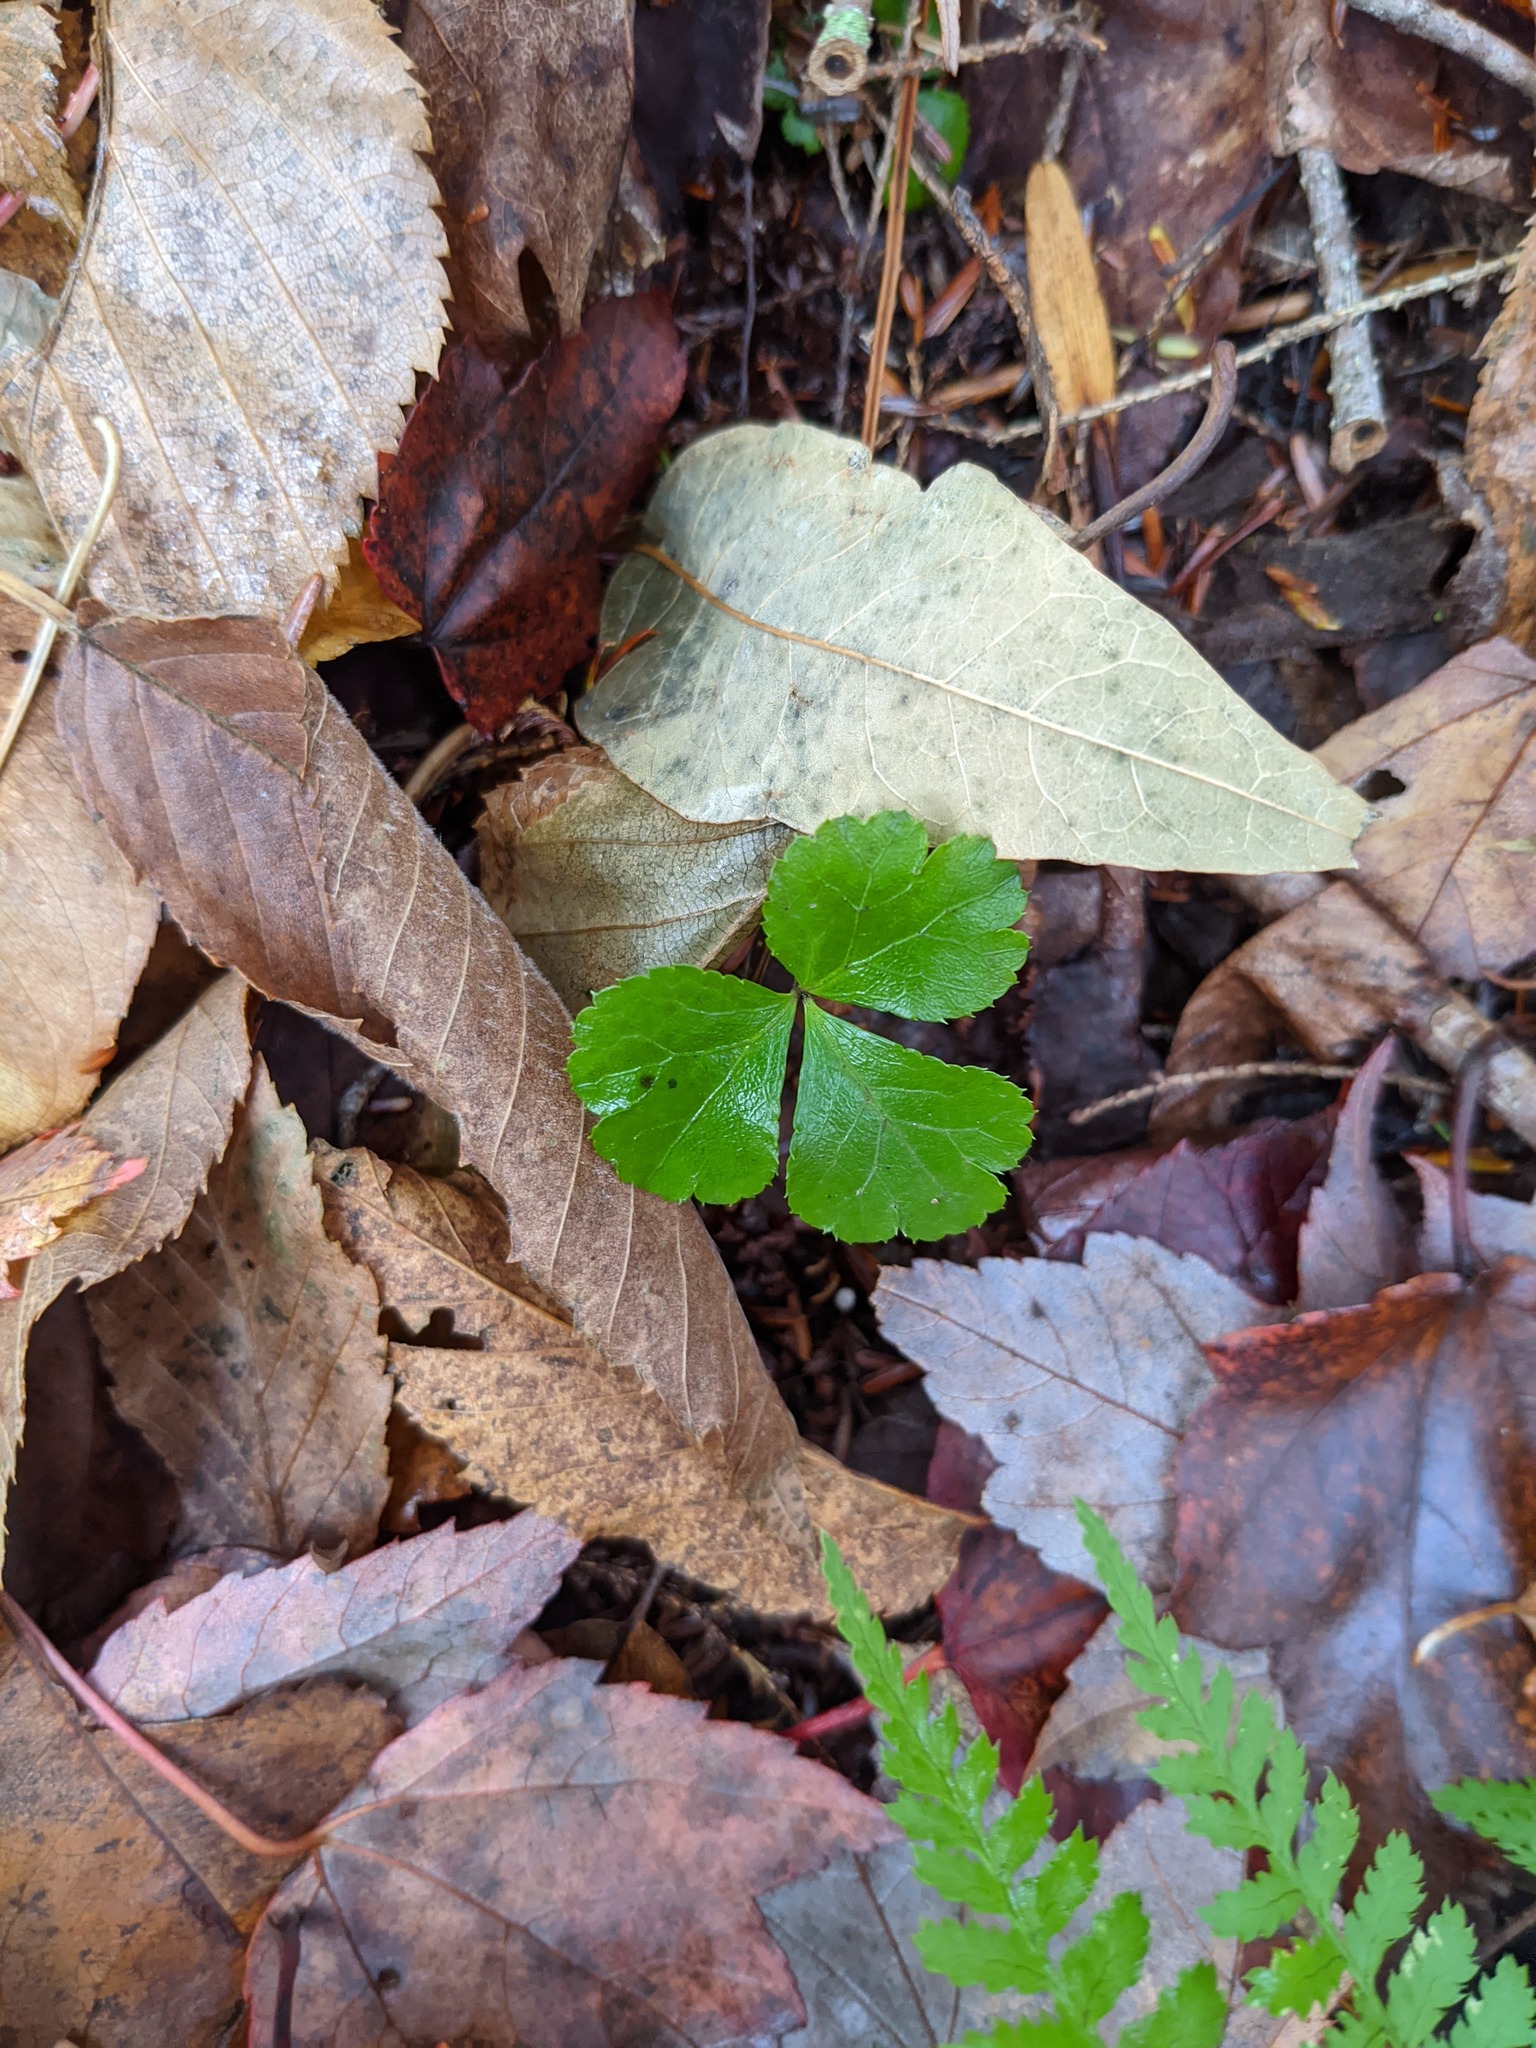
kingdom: Plantae
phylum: Tracheophyta
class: Magnoliopsida
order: Ranunculales
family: Ranunculaceae
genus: Coptis
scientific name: Coptis trifolia
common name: Canker-root
